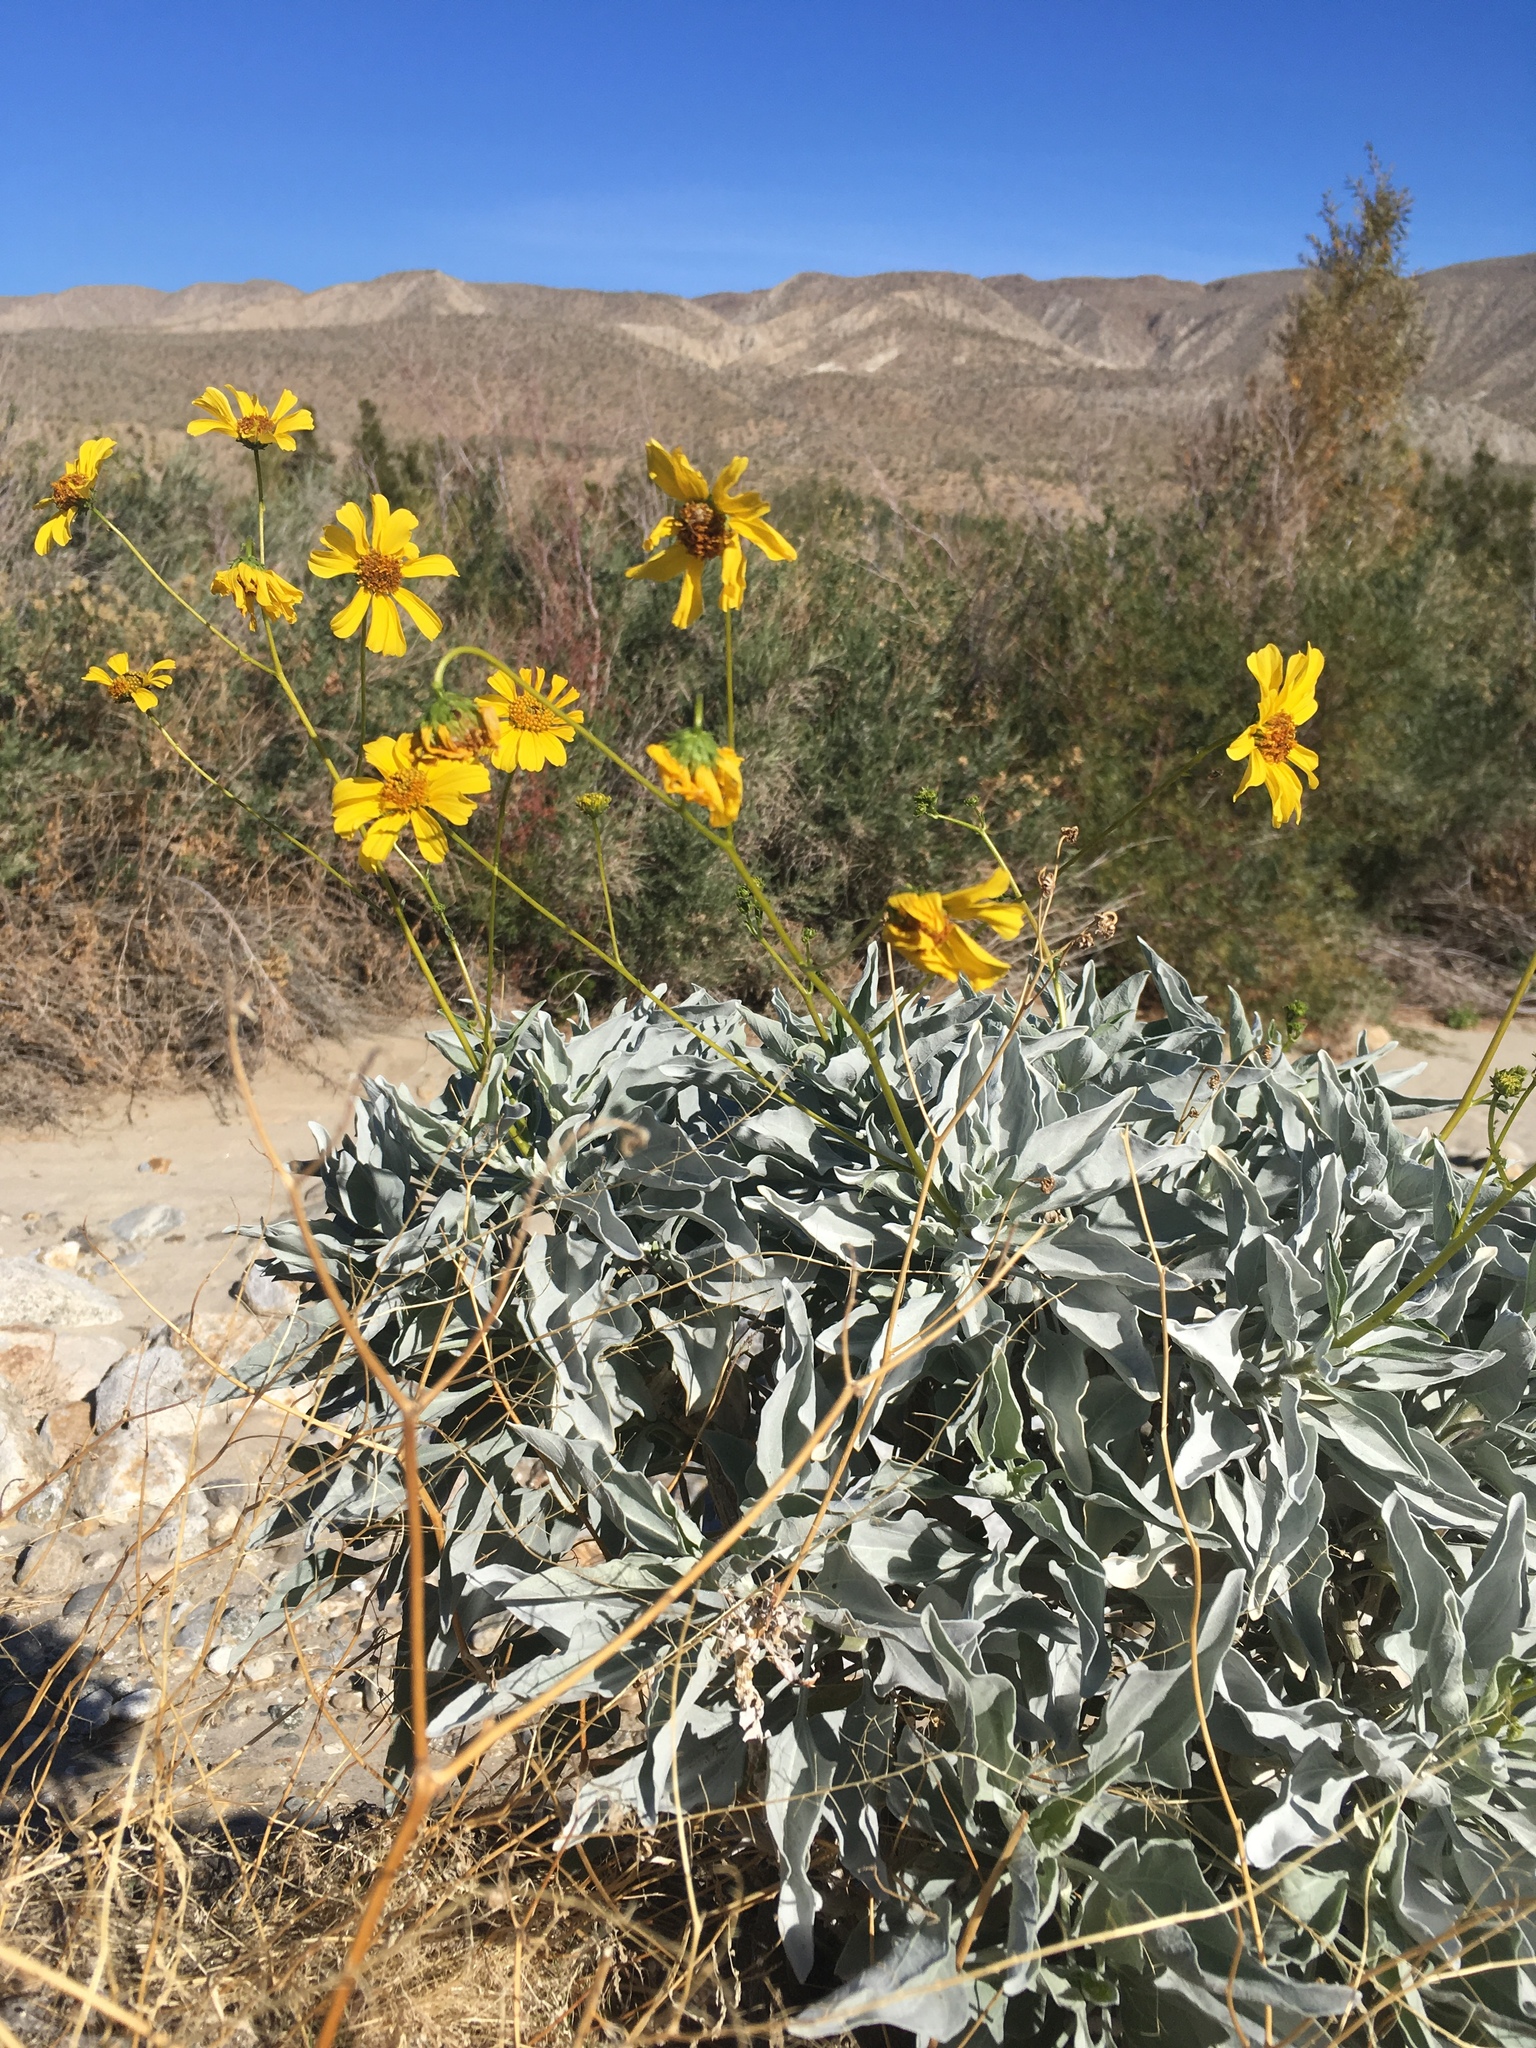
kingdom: Plantae
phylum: Tracheophyta
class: Magnoliopsida
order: Asterales
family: Asteraceae
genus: Encelia
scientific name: Encelia farinosa
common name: Brittlebush
